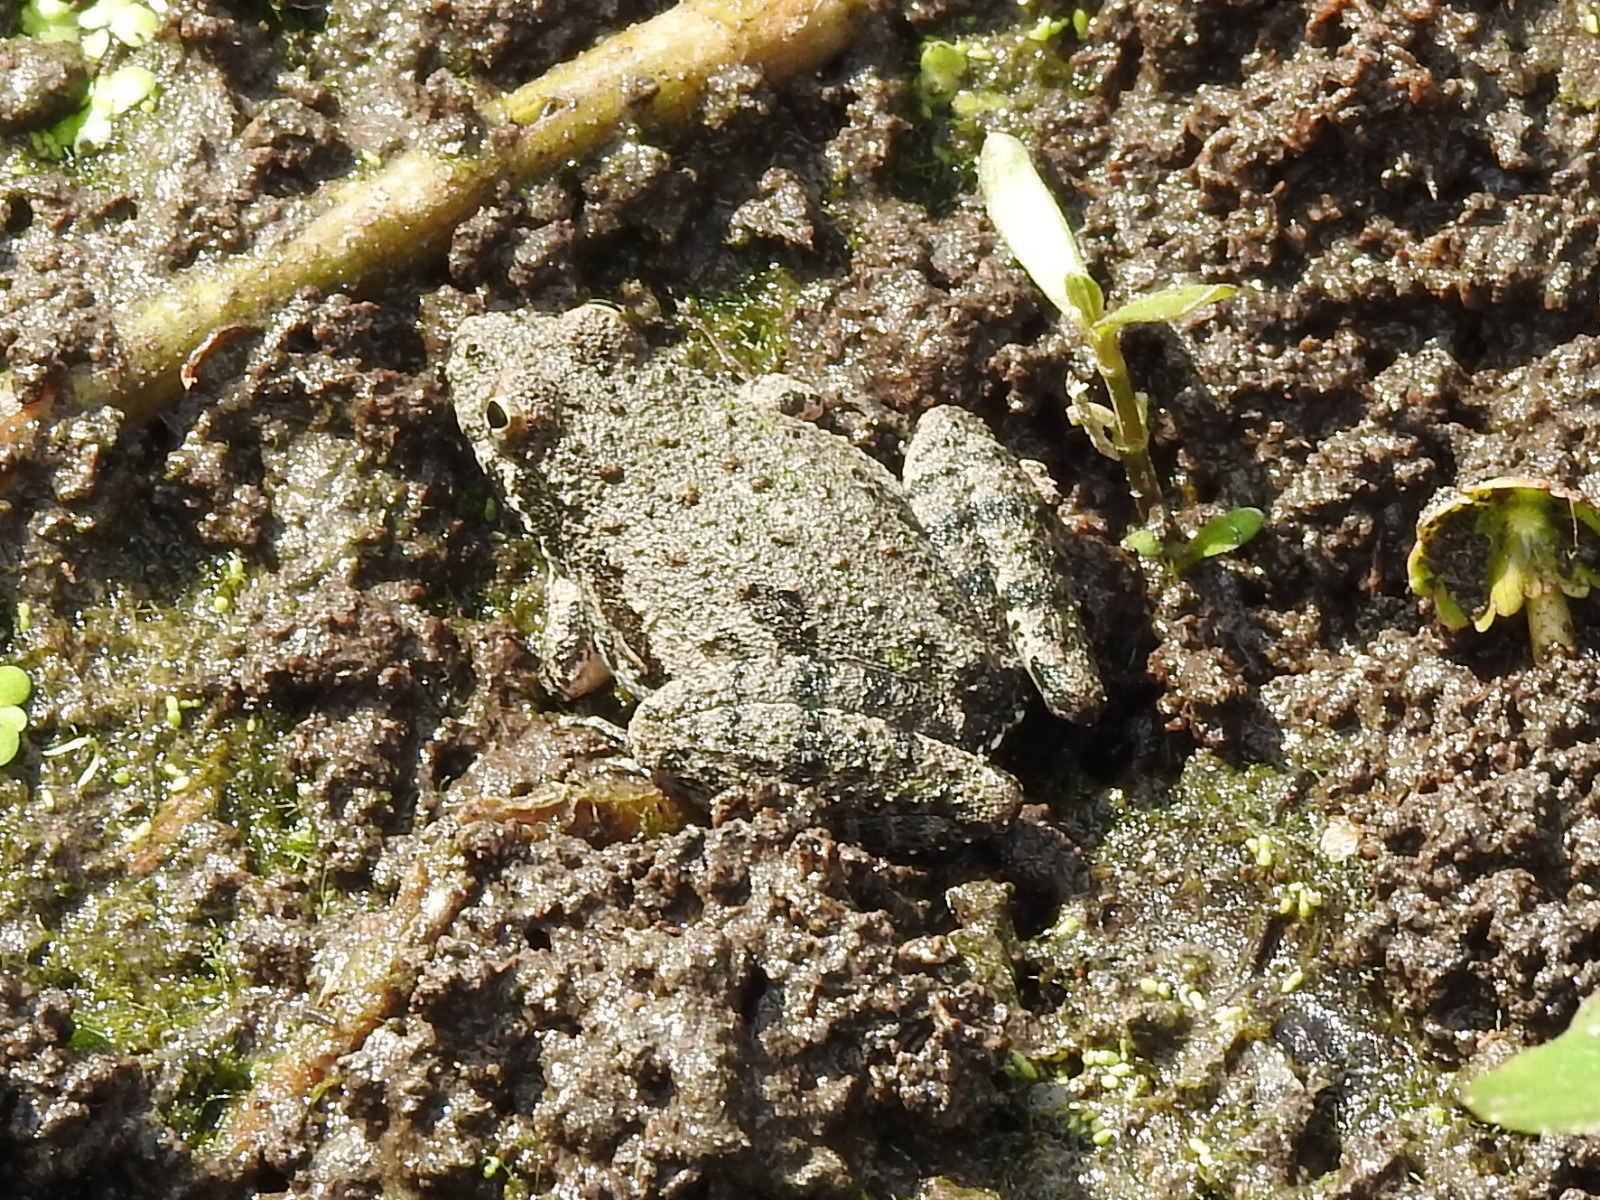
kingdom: Animalia
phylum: Chordata
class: Amphibia
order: Anura
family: Hylidae
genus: Acris
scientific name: Acris blanchardi
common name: Blanchard's cricket frog
